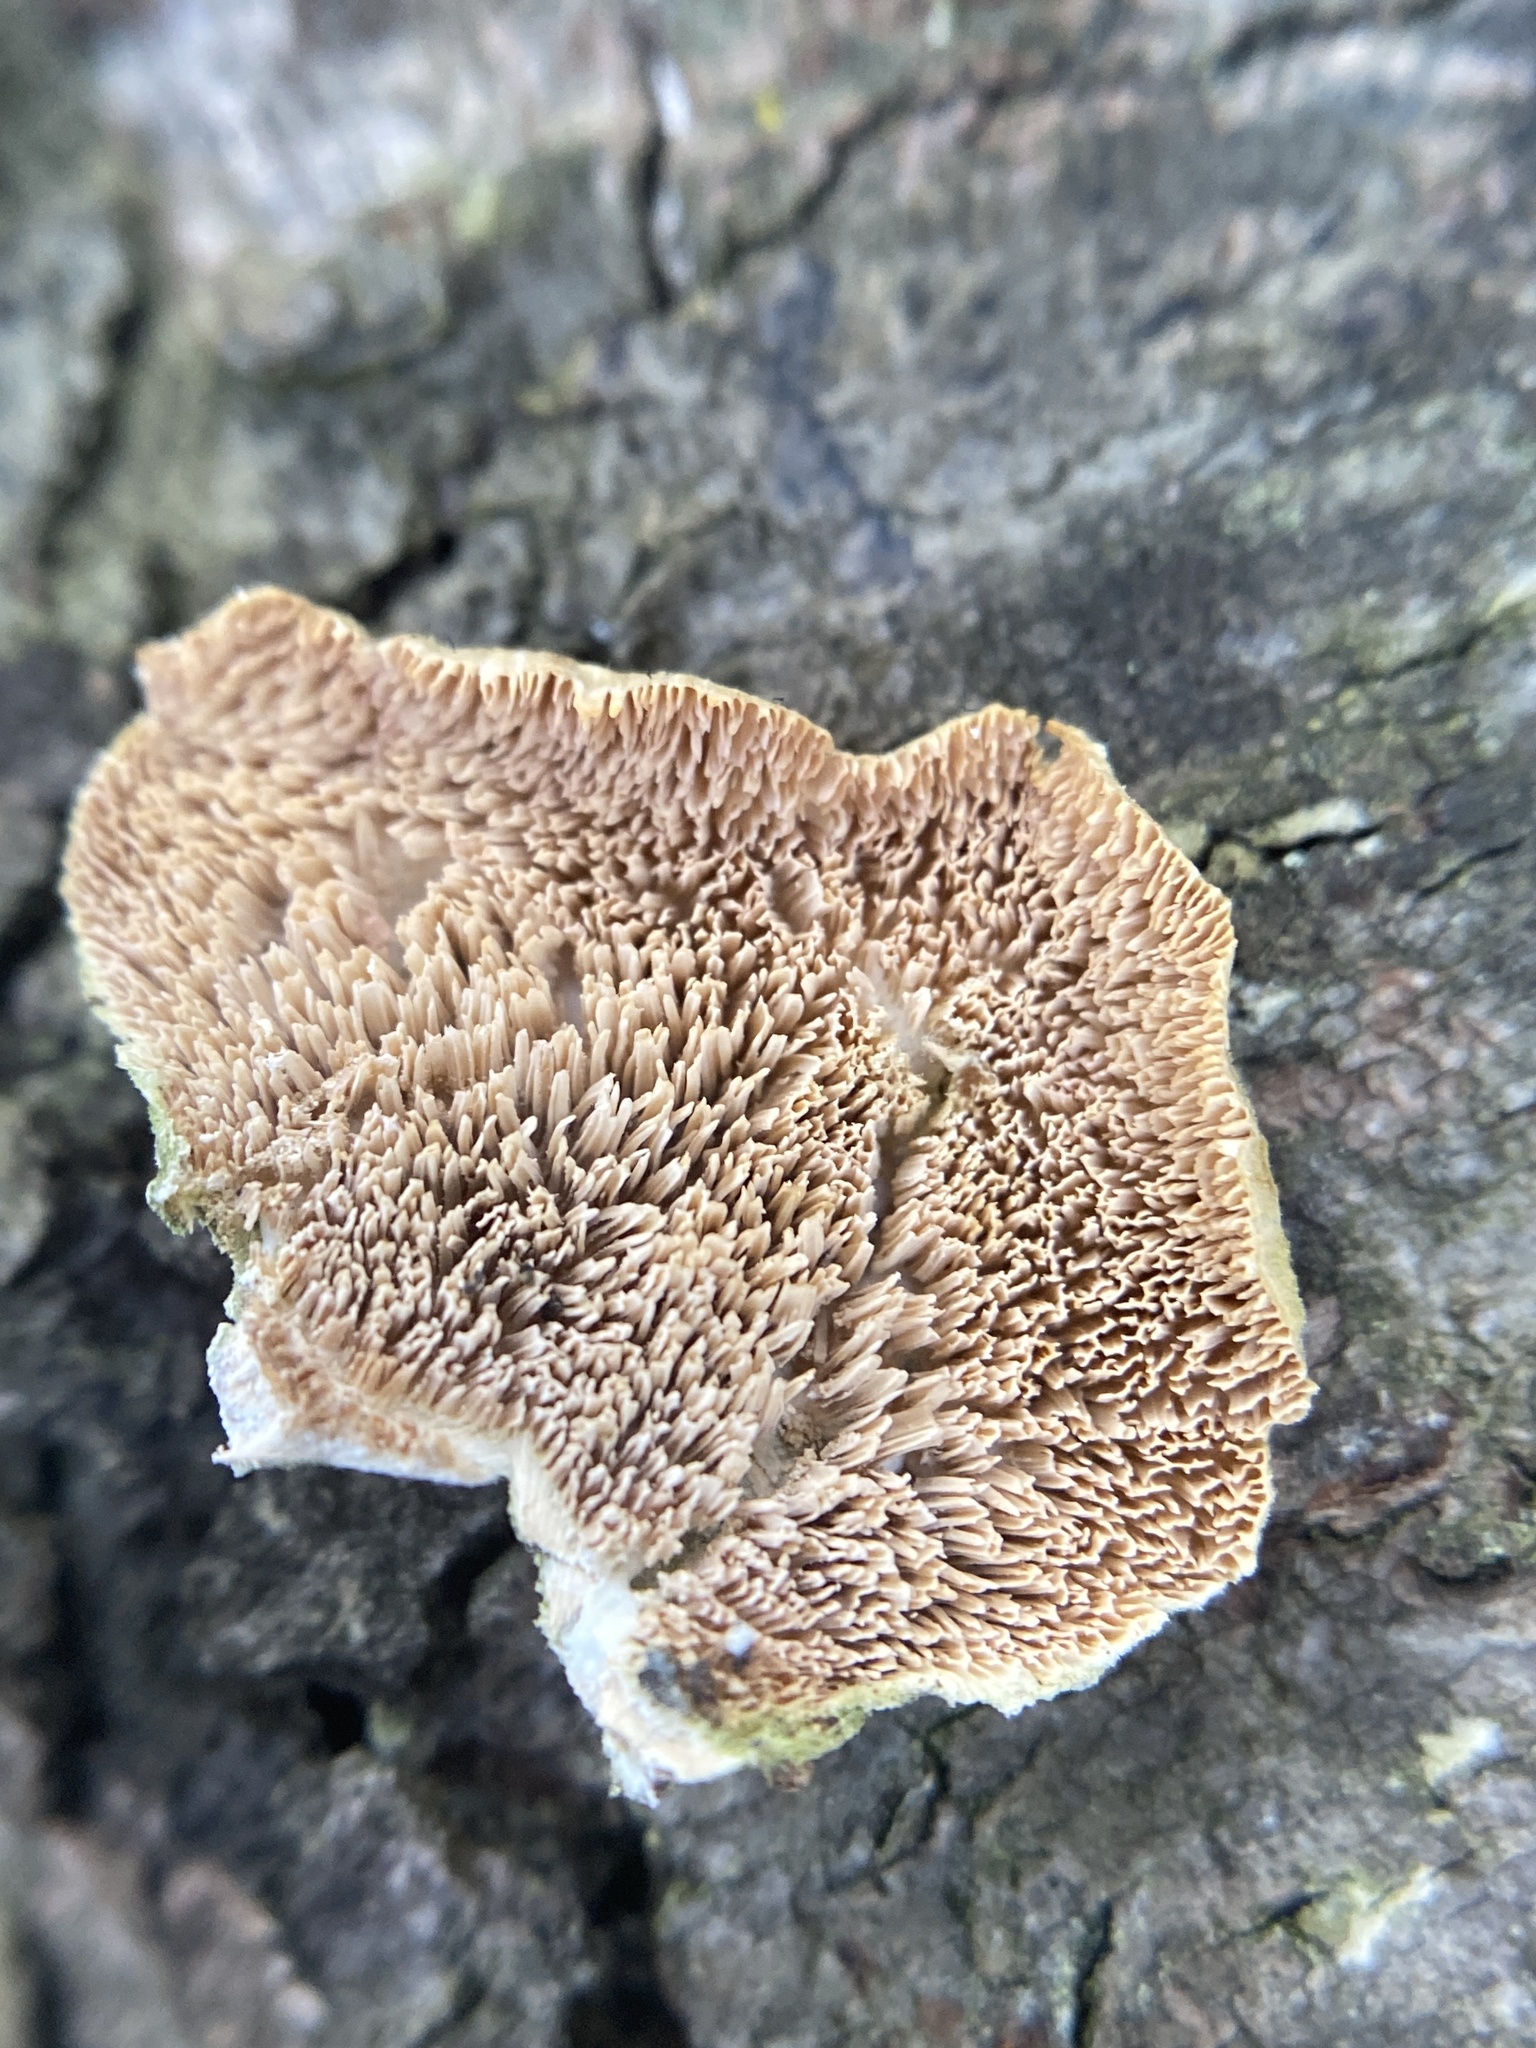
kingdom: Fungi
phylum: Basidiomycota
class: Agaricomycetes
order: Hymenochaetales
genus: Trichaptum
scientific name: Trichaptum biforme
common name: Violet-toothed polypore
